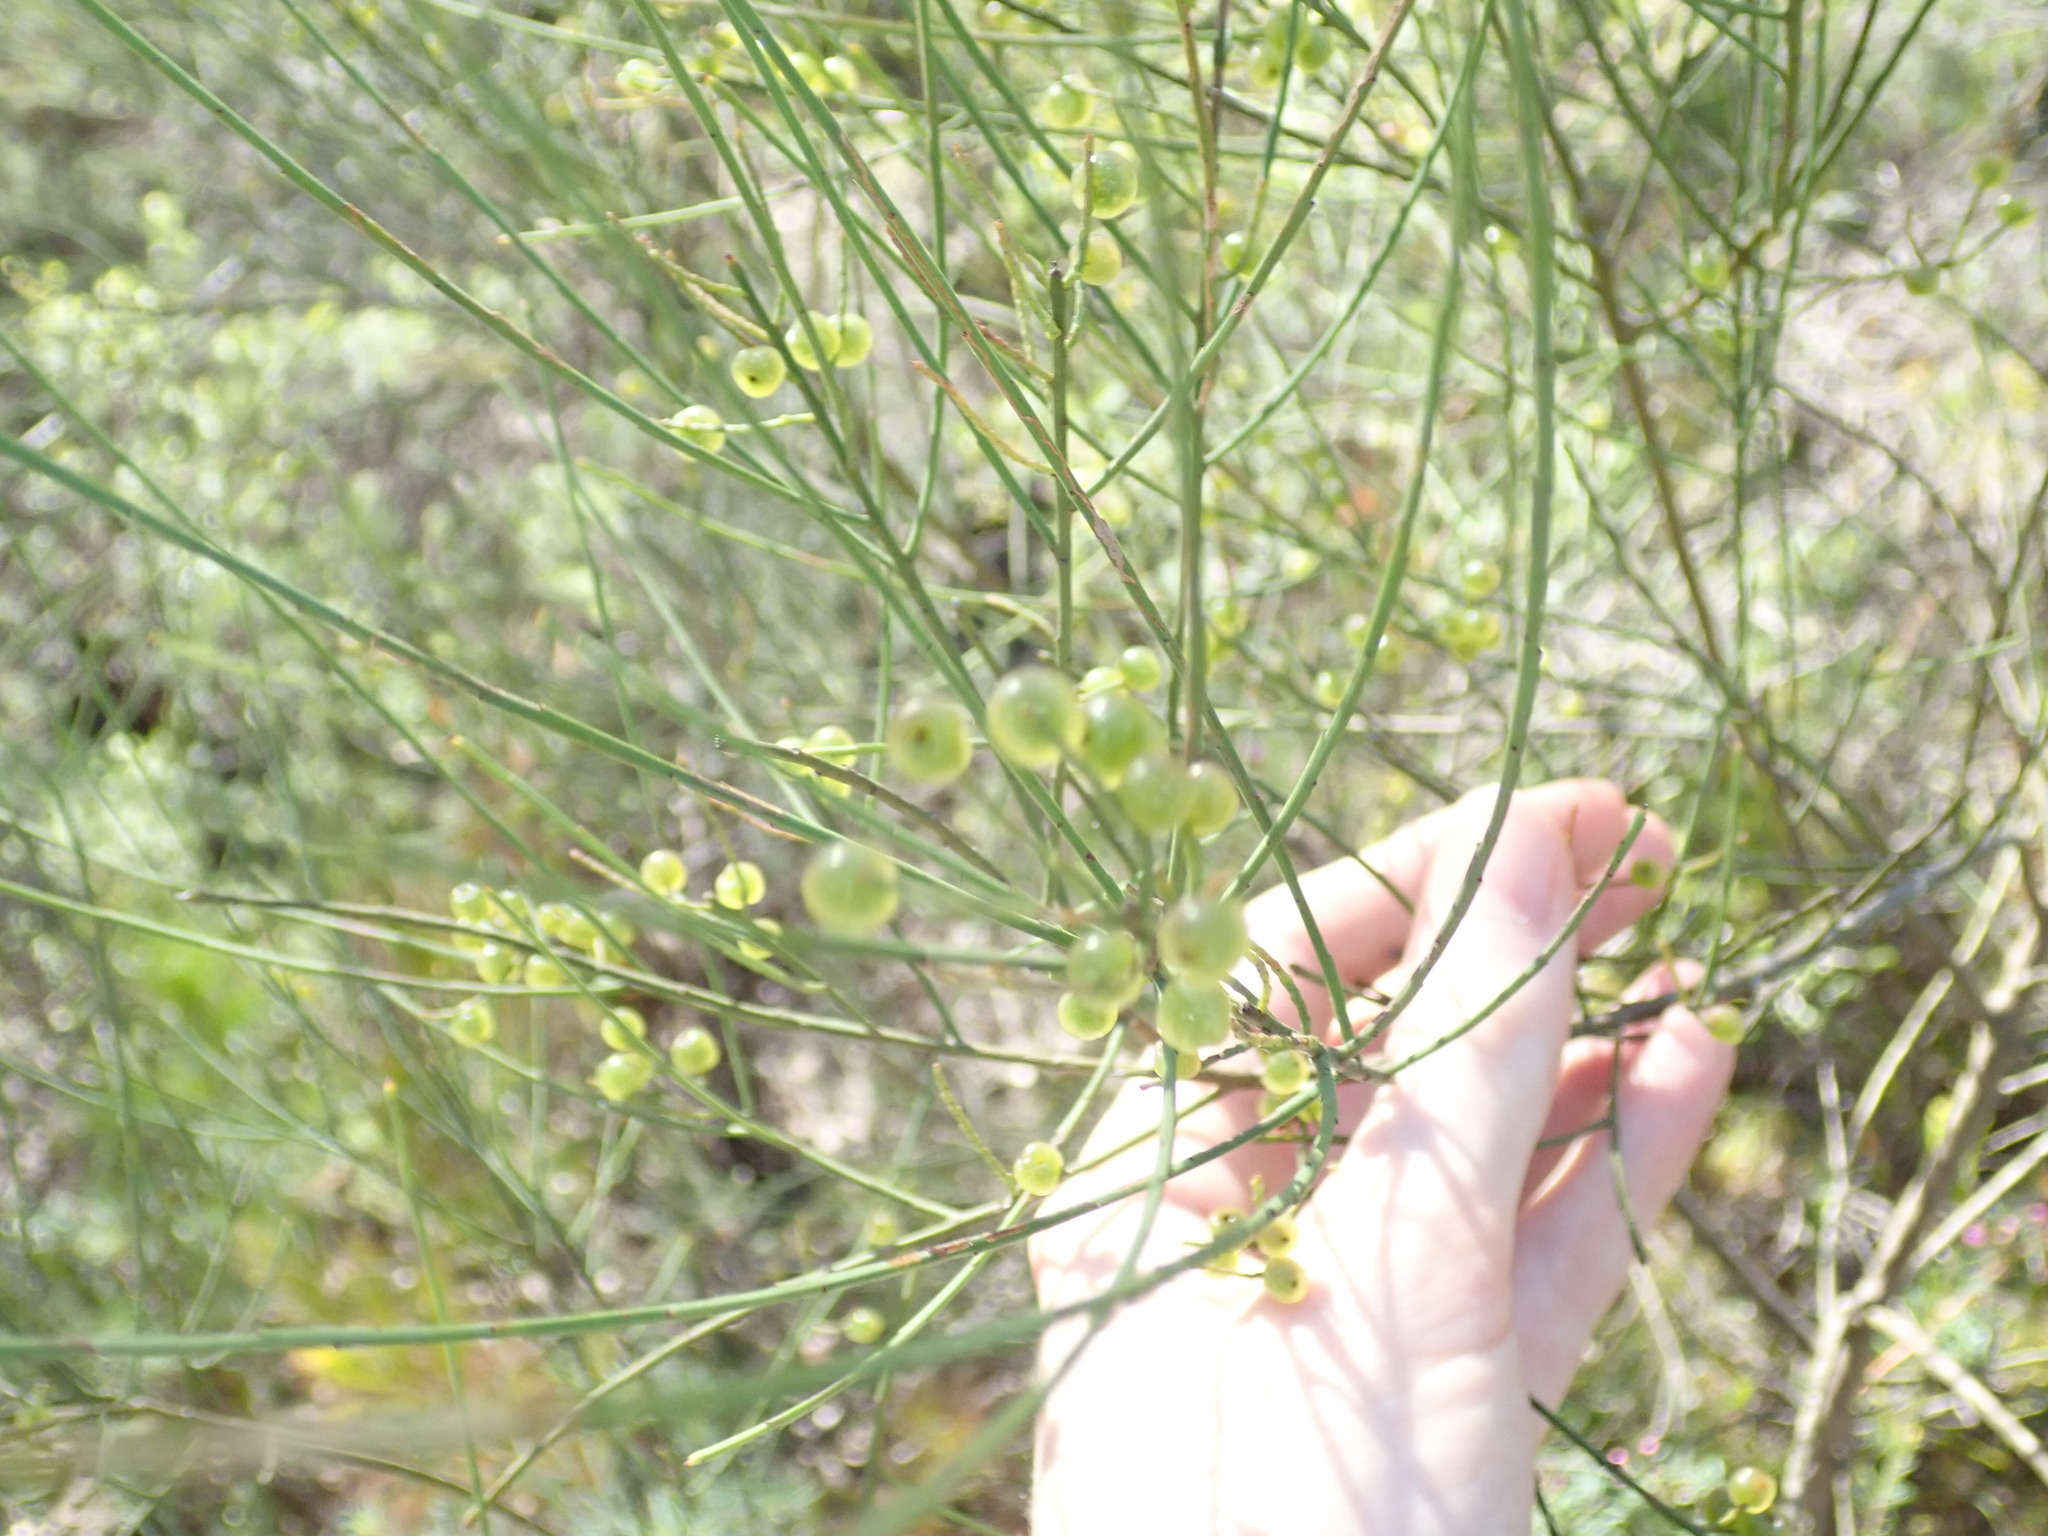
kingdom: Plantae
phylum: Tracheophyta
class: Magnoliopsida
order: Santalales
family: Amphorogynaceae
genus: Leptomeria
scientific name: Leptomeria acida
